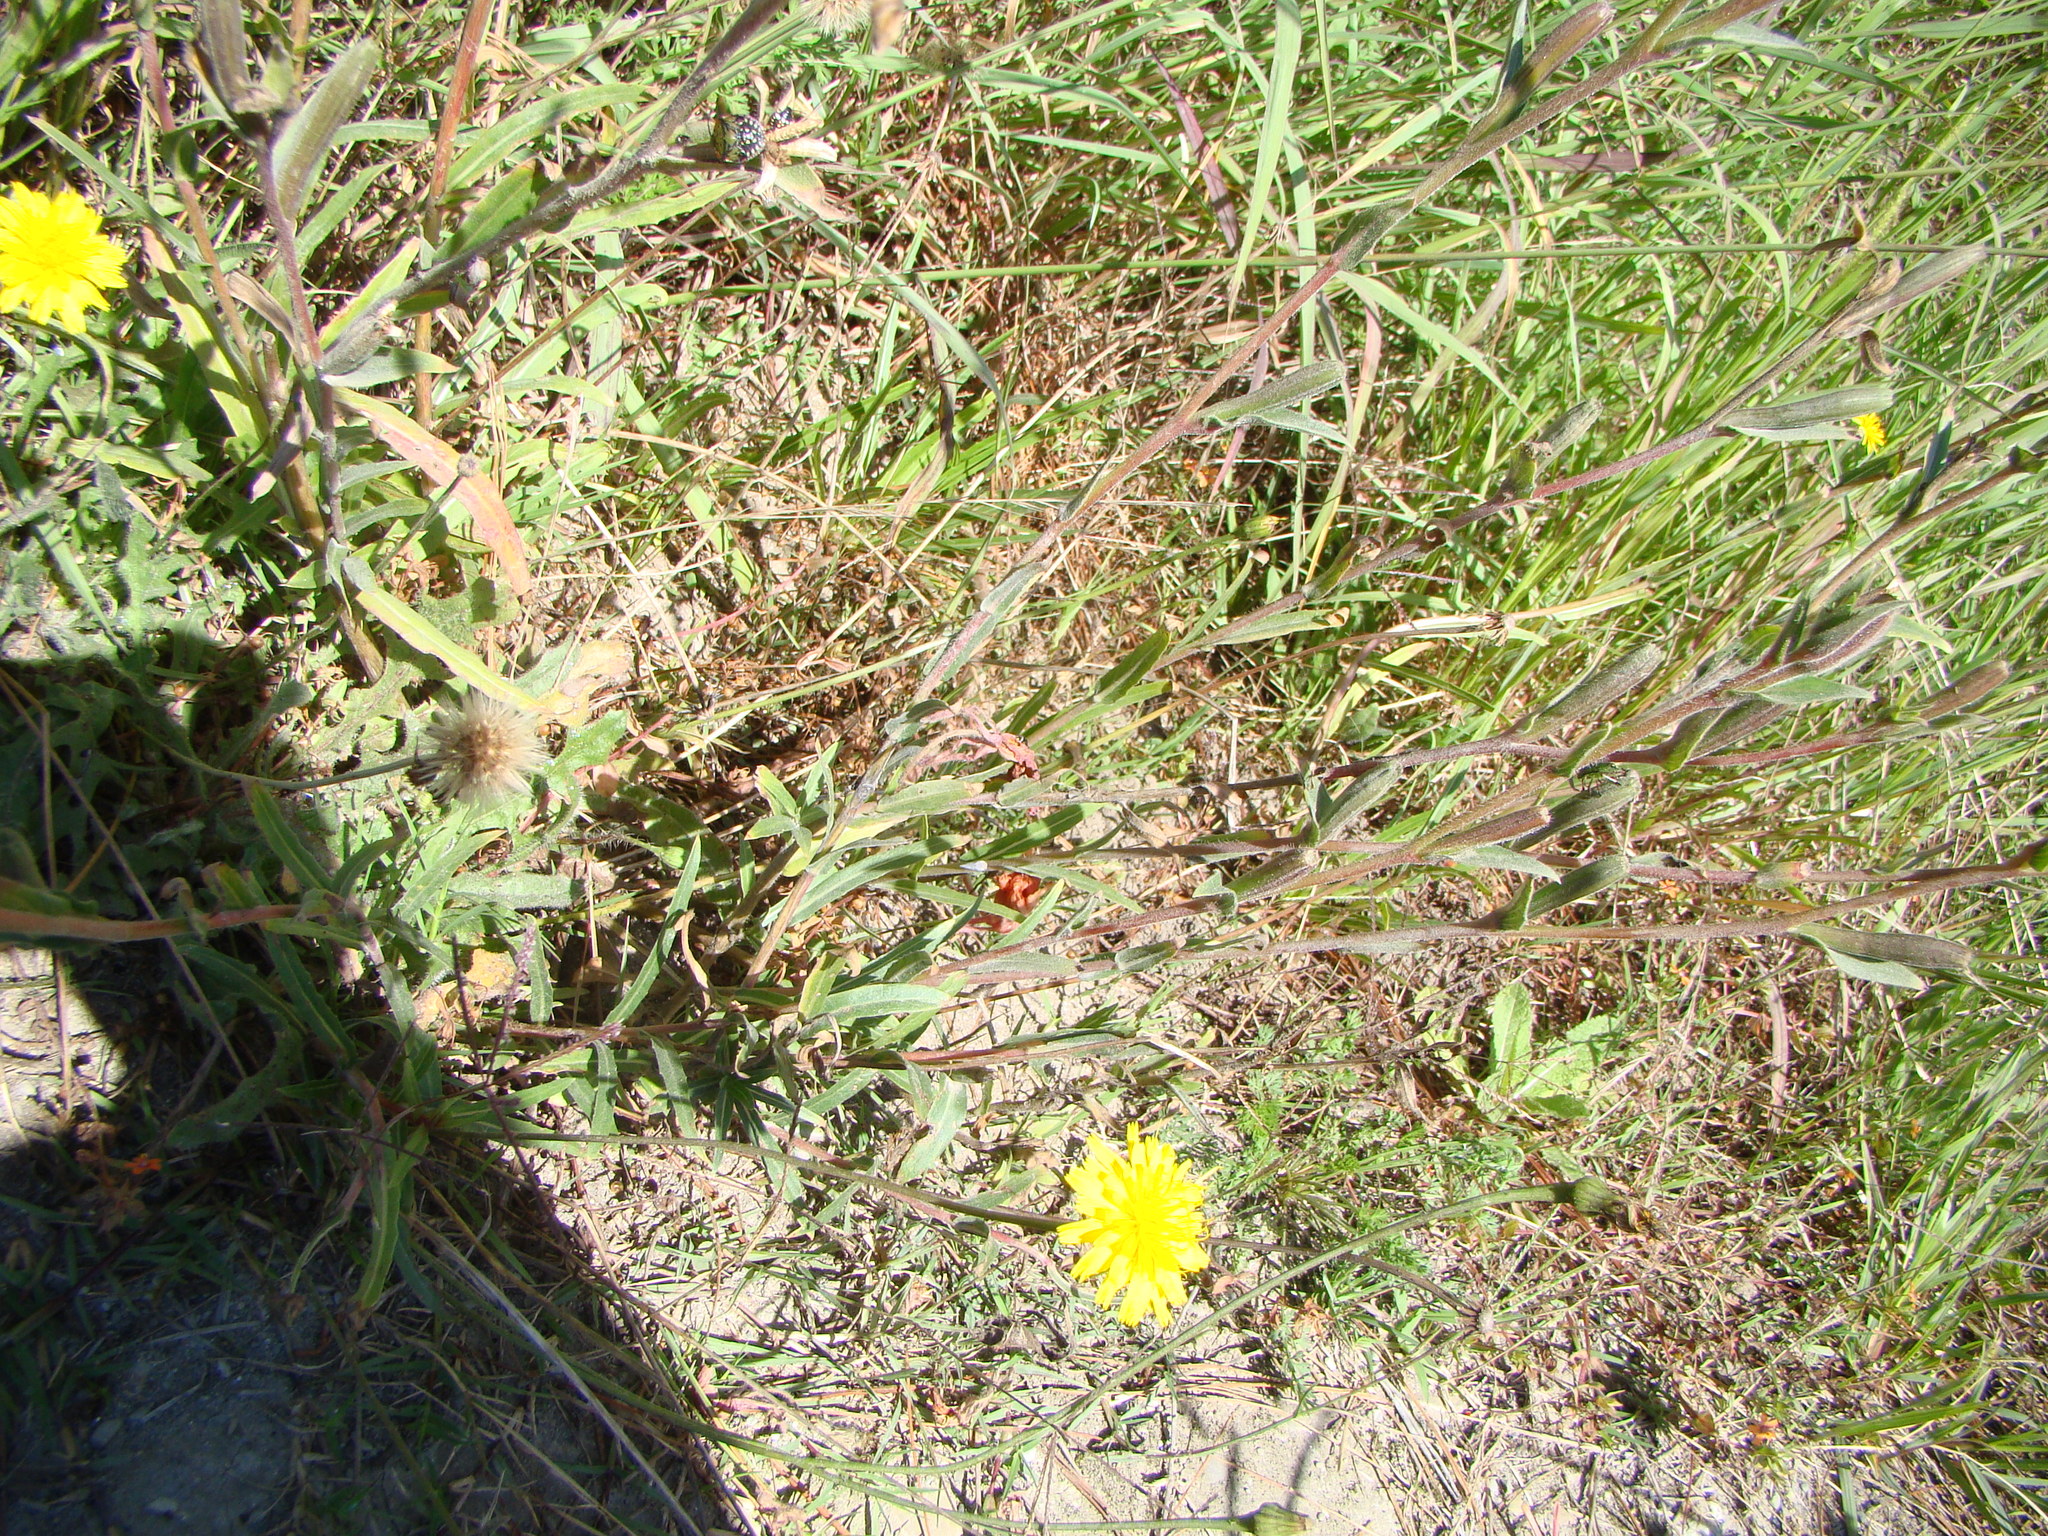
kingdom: Animalia
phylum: Arthropoda
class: Maxillopoda
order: Sessilia
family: Chthamalidae
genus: Chamaesipho
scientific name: Chamaesipho columna
